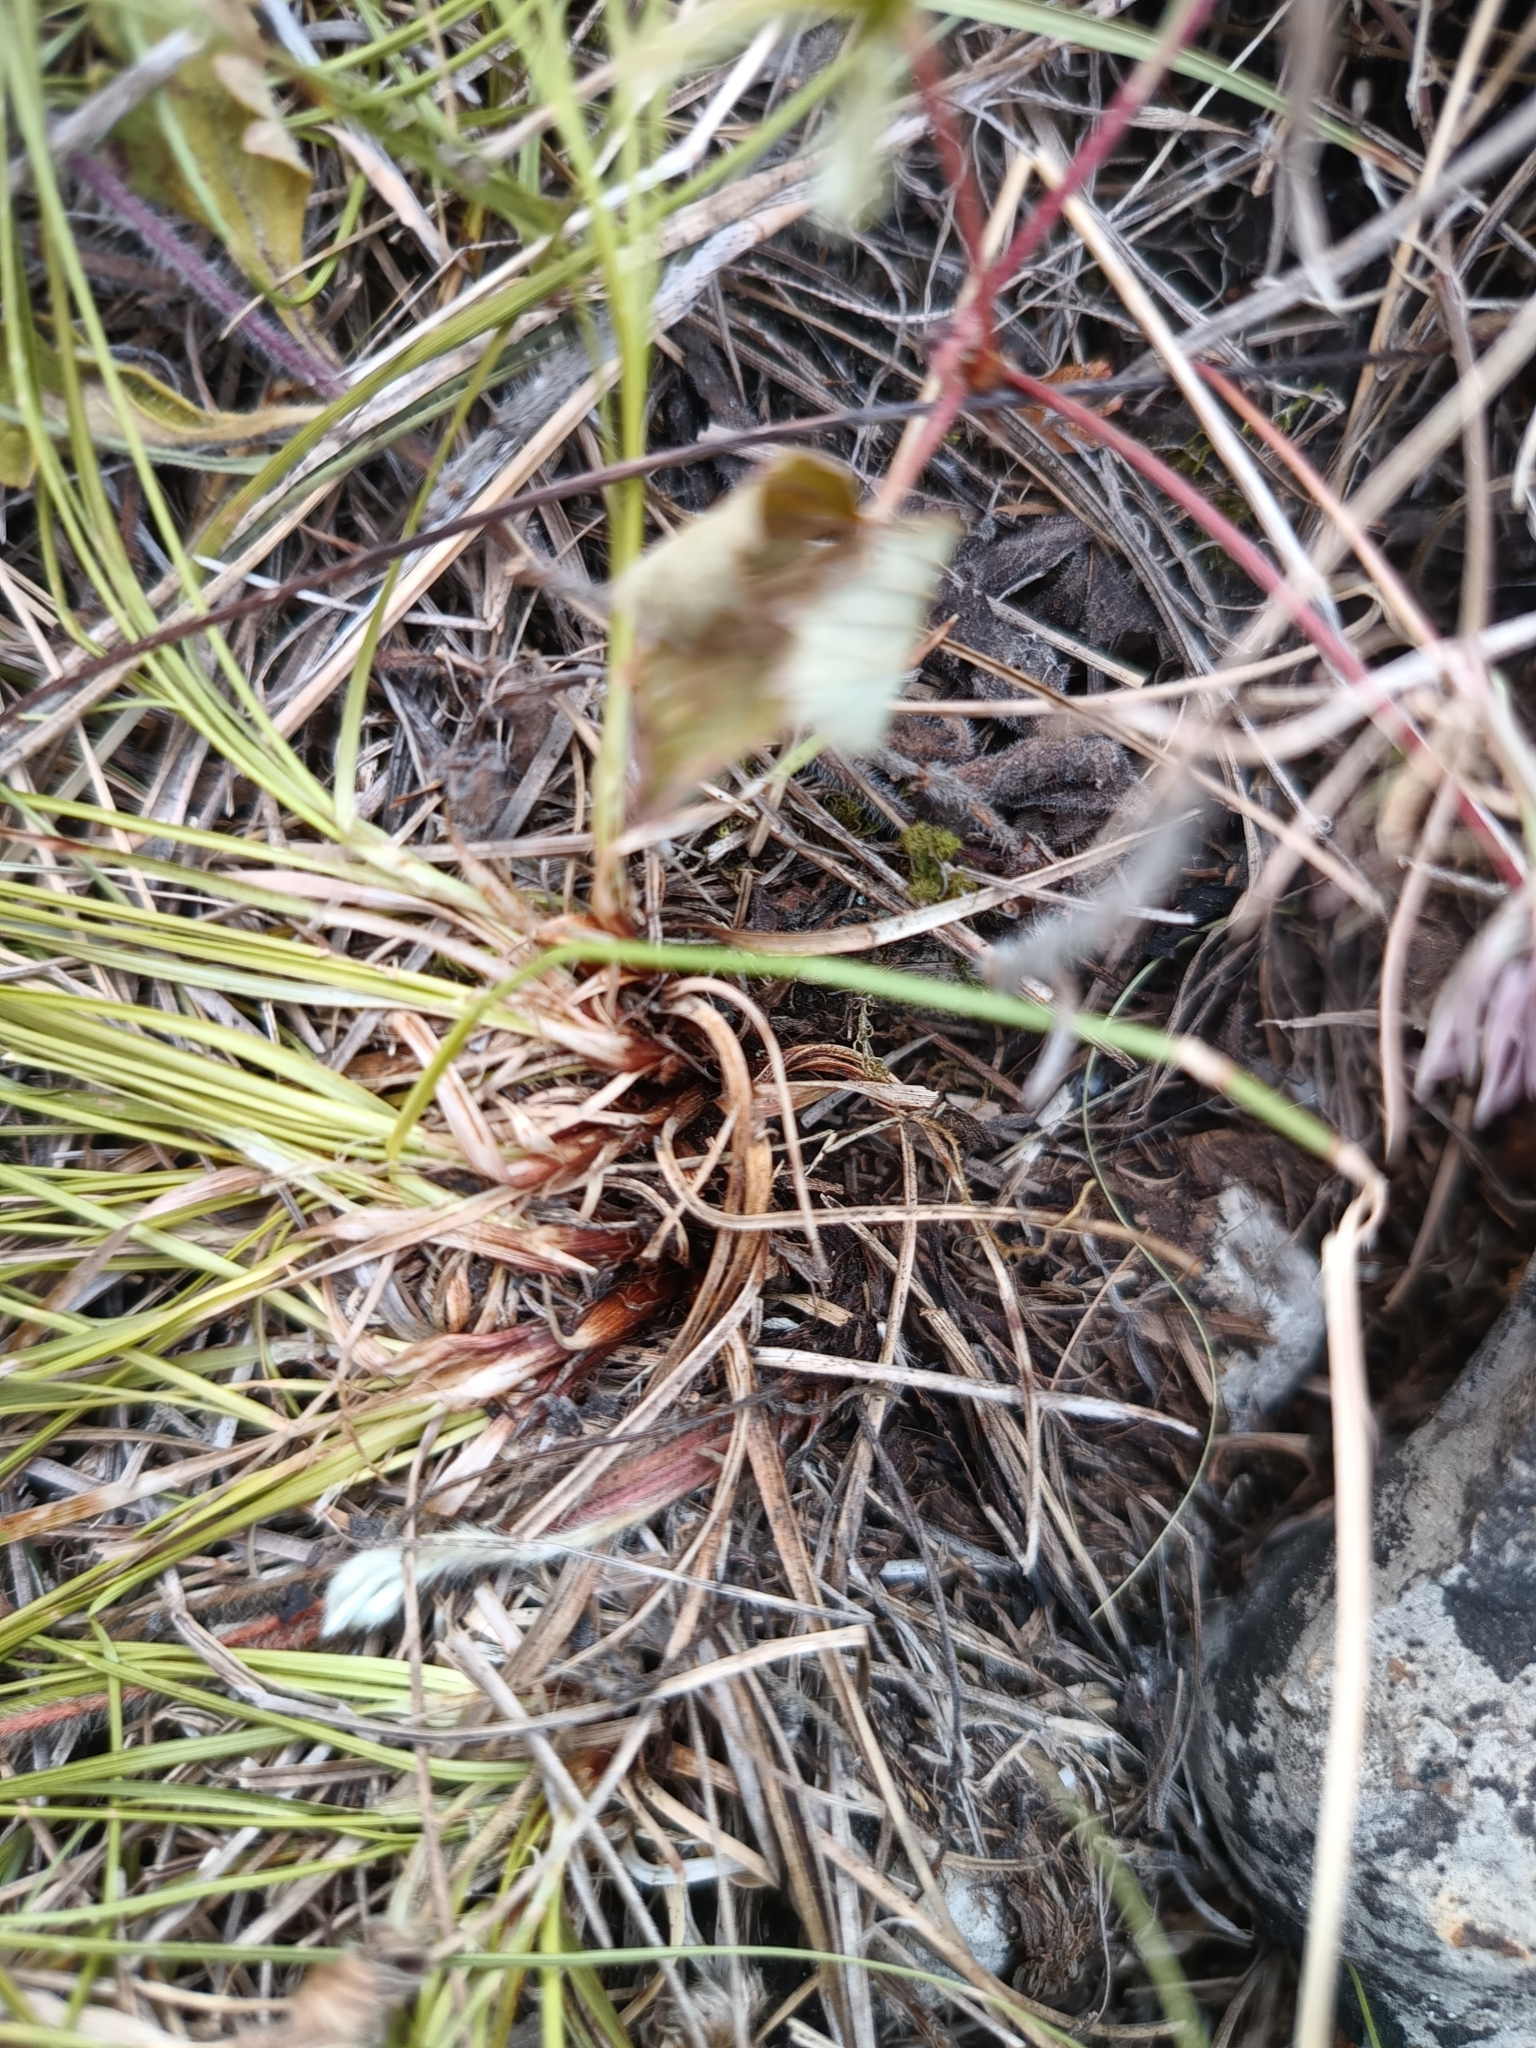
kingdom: Plantae
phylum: Tracheophyta
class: Liliopsida
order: Poales
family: Cyperaceae
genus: Carex
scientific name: Carex humilis
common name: Dwarf sedge
